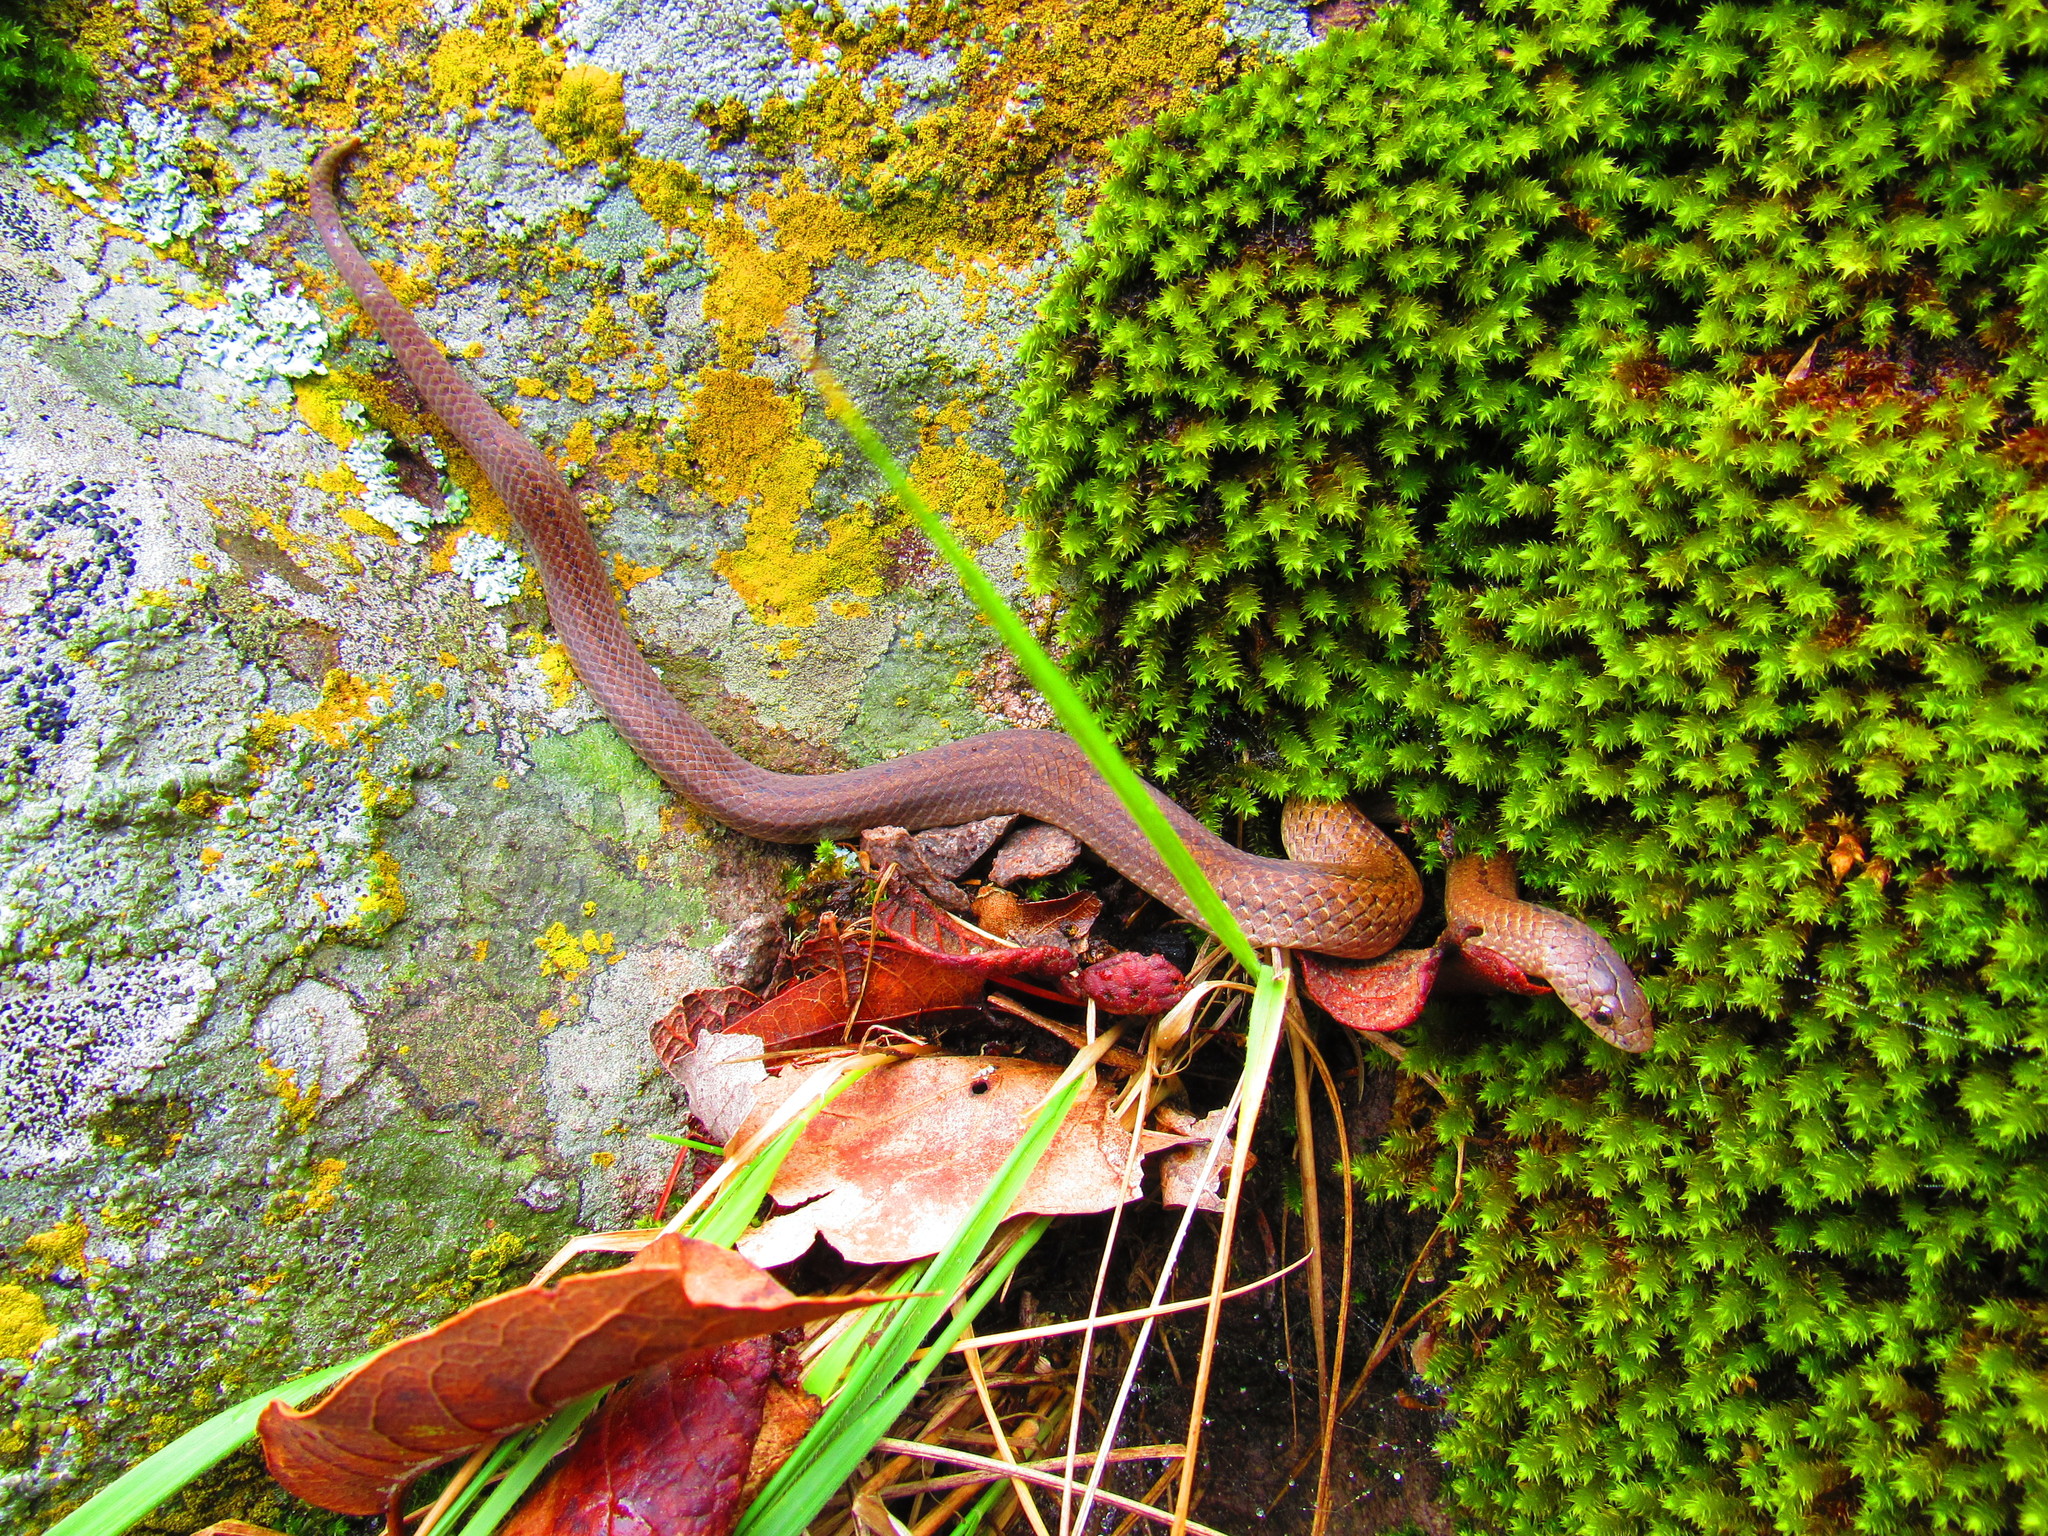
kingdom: Animalia
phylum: Chordata
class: Squamata
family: Colubridae
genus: Conopsis
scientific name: Conopsis biserialis
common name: Two-lined mexican earth snake
